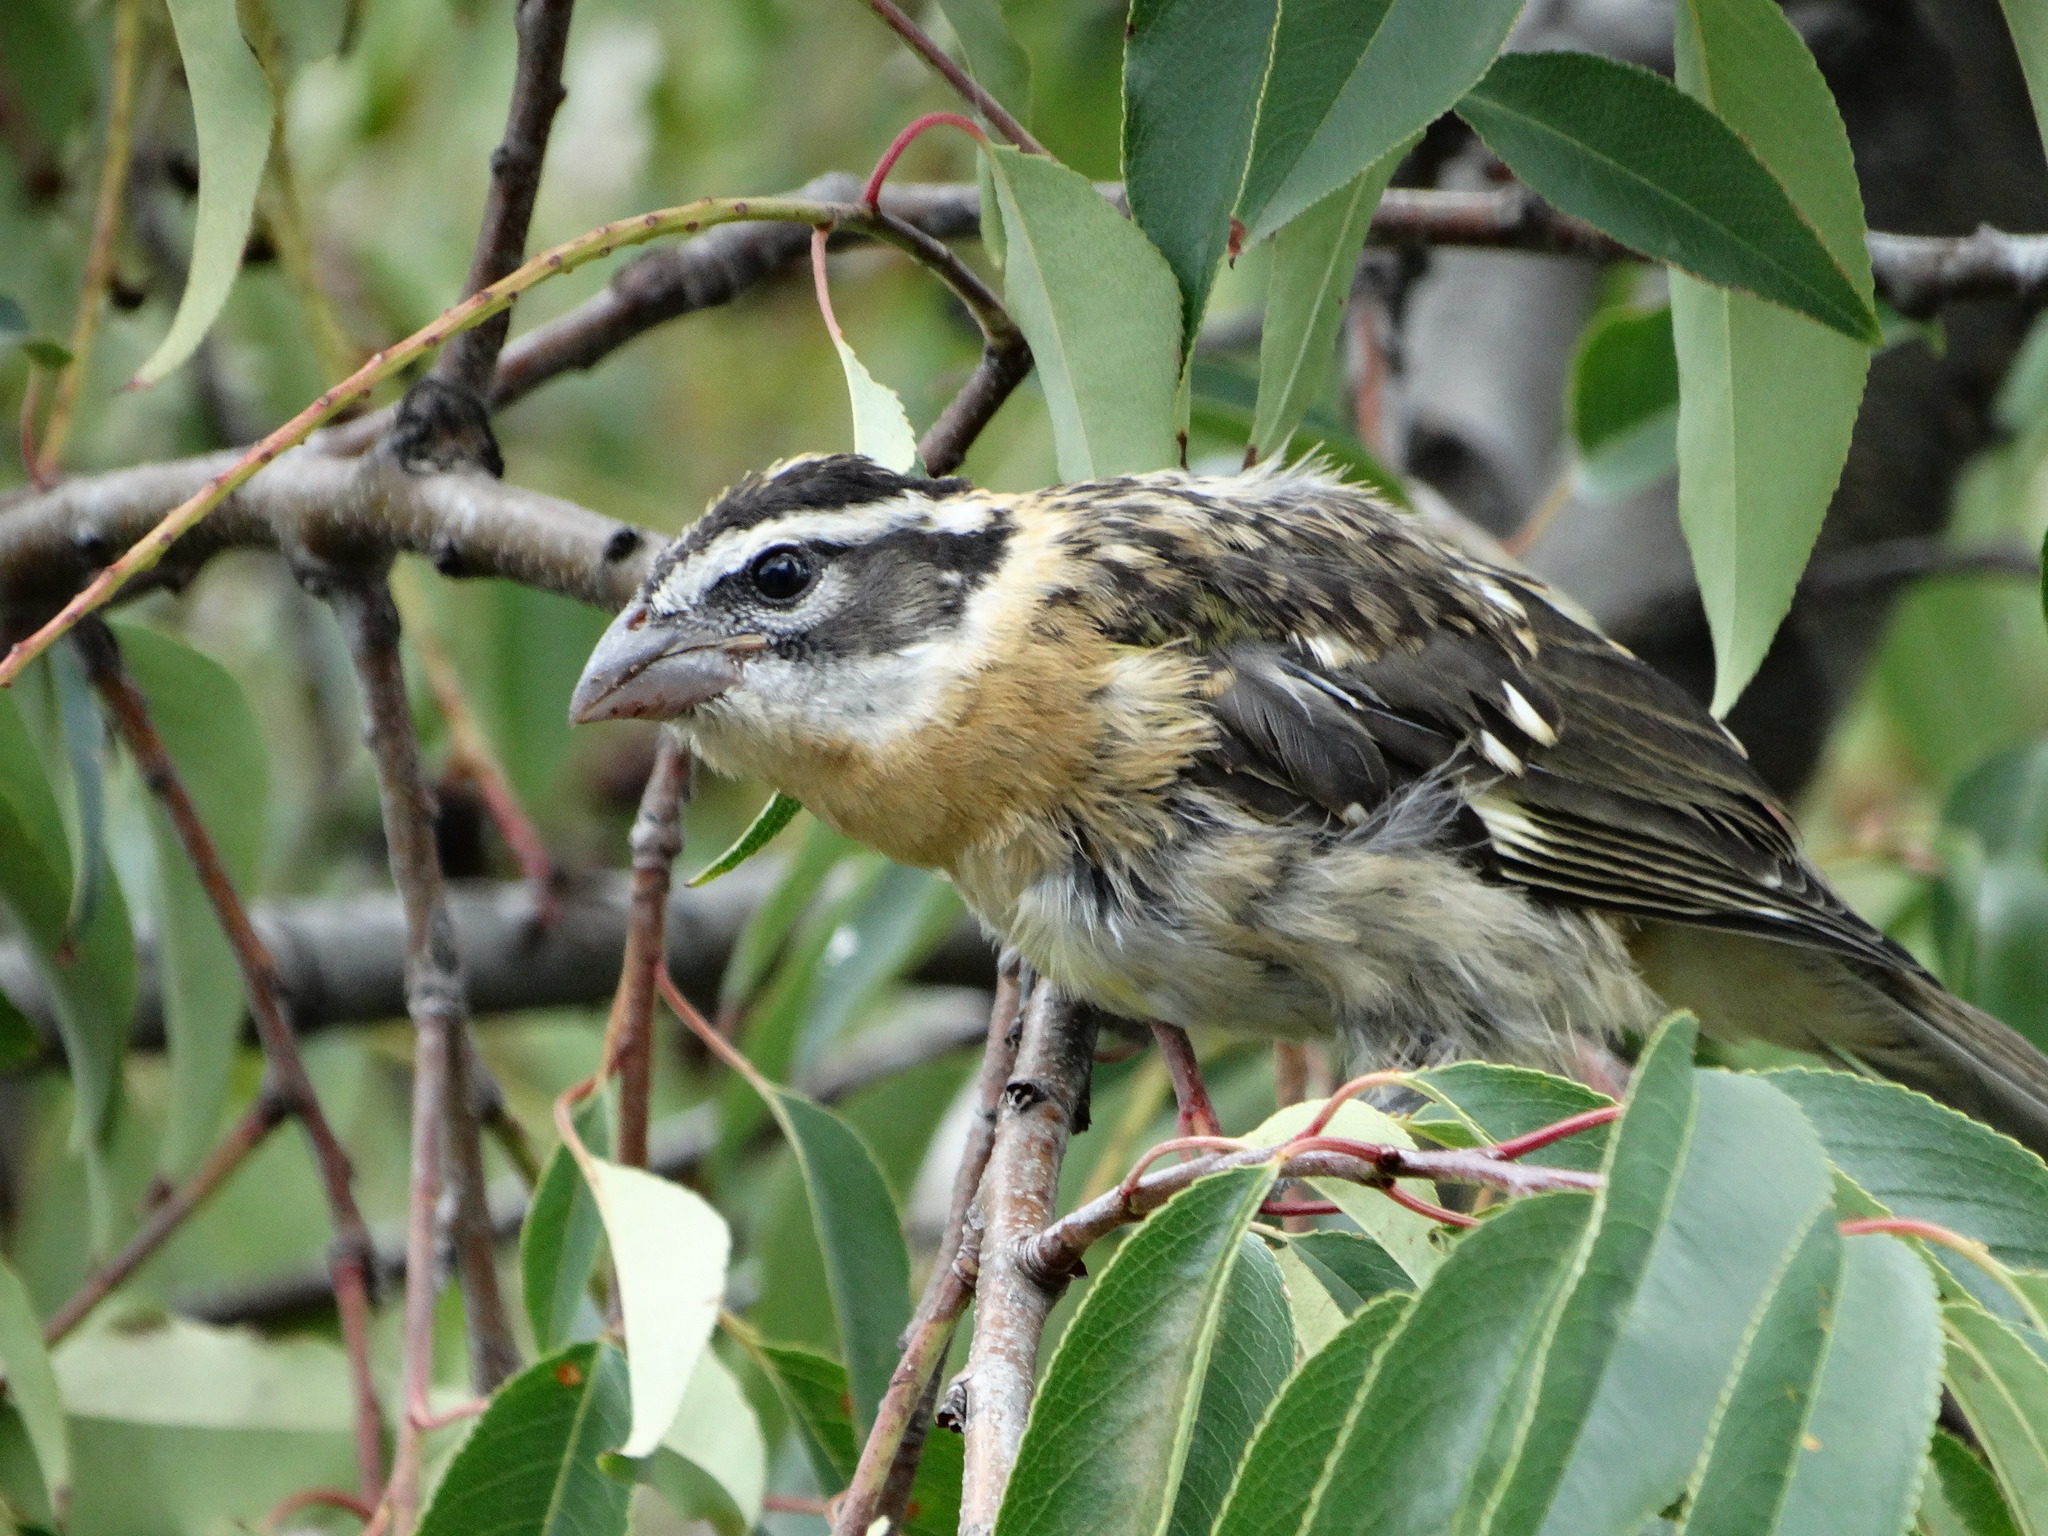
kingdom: Animalia
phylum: Chordata
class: Aves
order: Passeriformes
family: Cardinalidae
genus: Pheucticus
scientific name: Pheucticus melanocephalus
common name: Black-headed grosbeak
